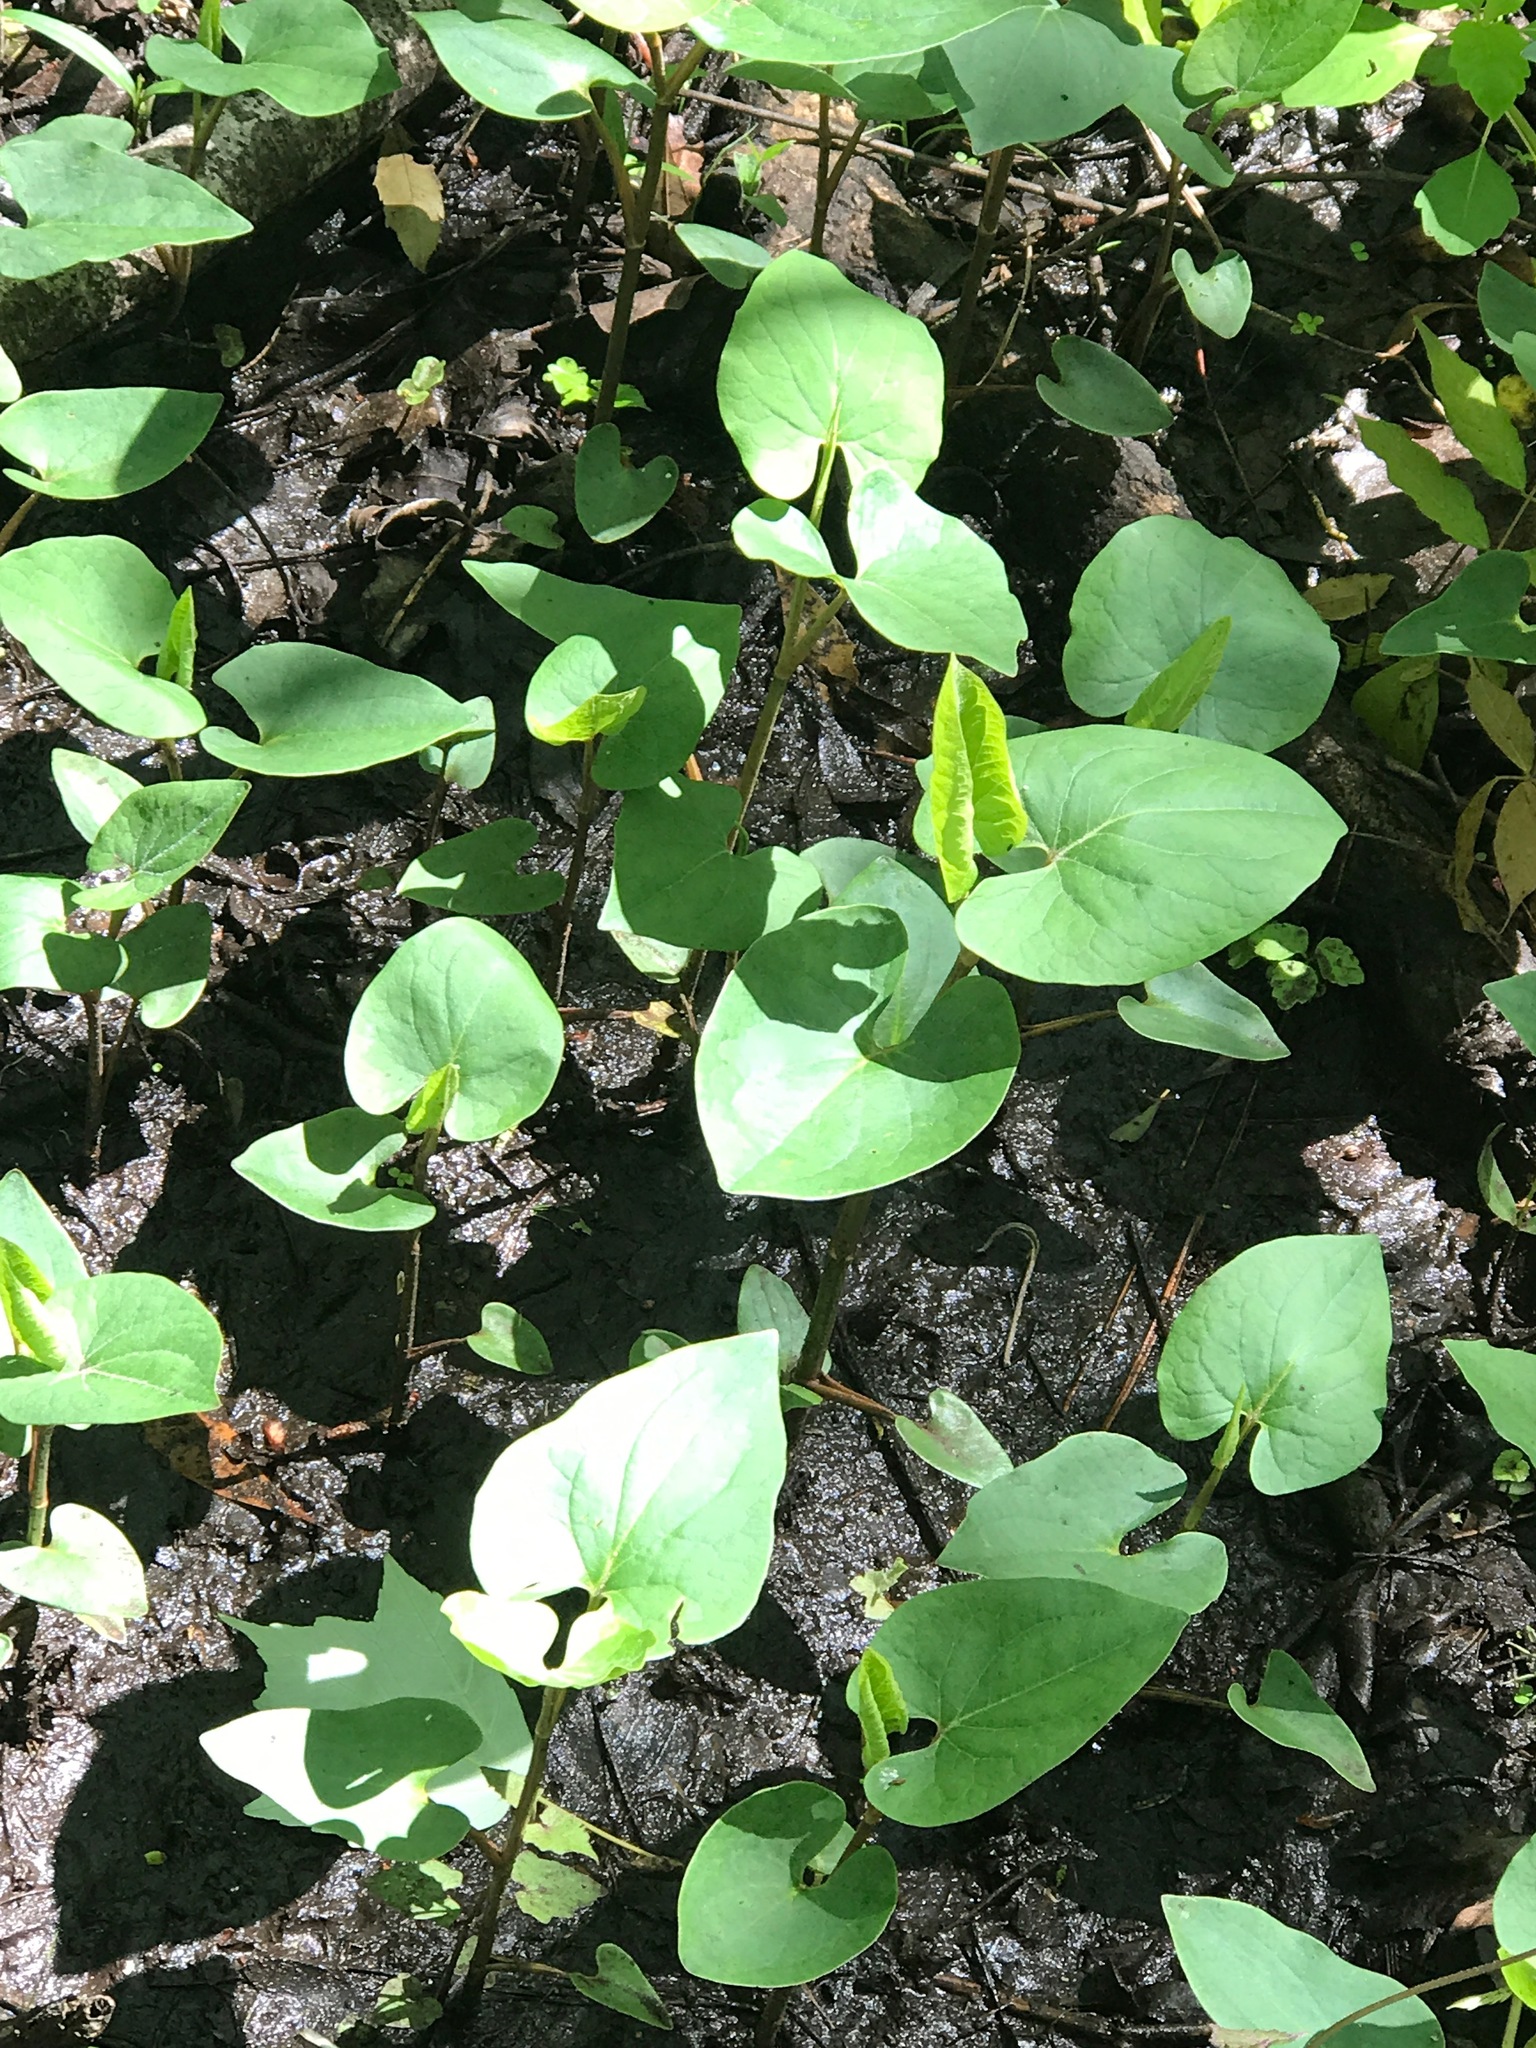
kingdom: Plantae
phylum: Tracheophyta
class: Magnoliopsida
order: Piperales
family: Saururaceae
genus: Saururus
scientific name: Saururus cernuus
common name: Lizard's-tail
